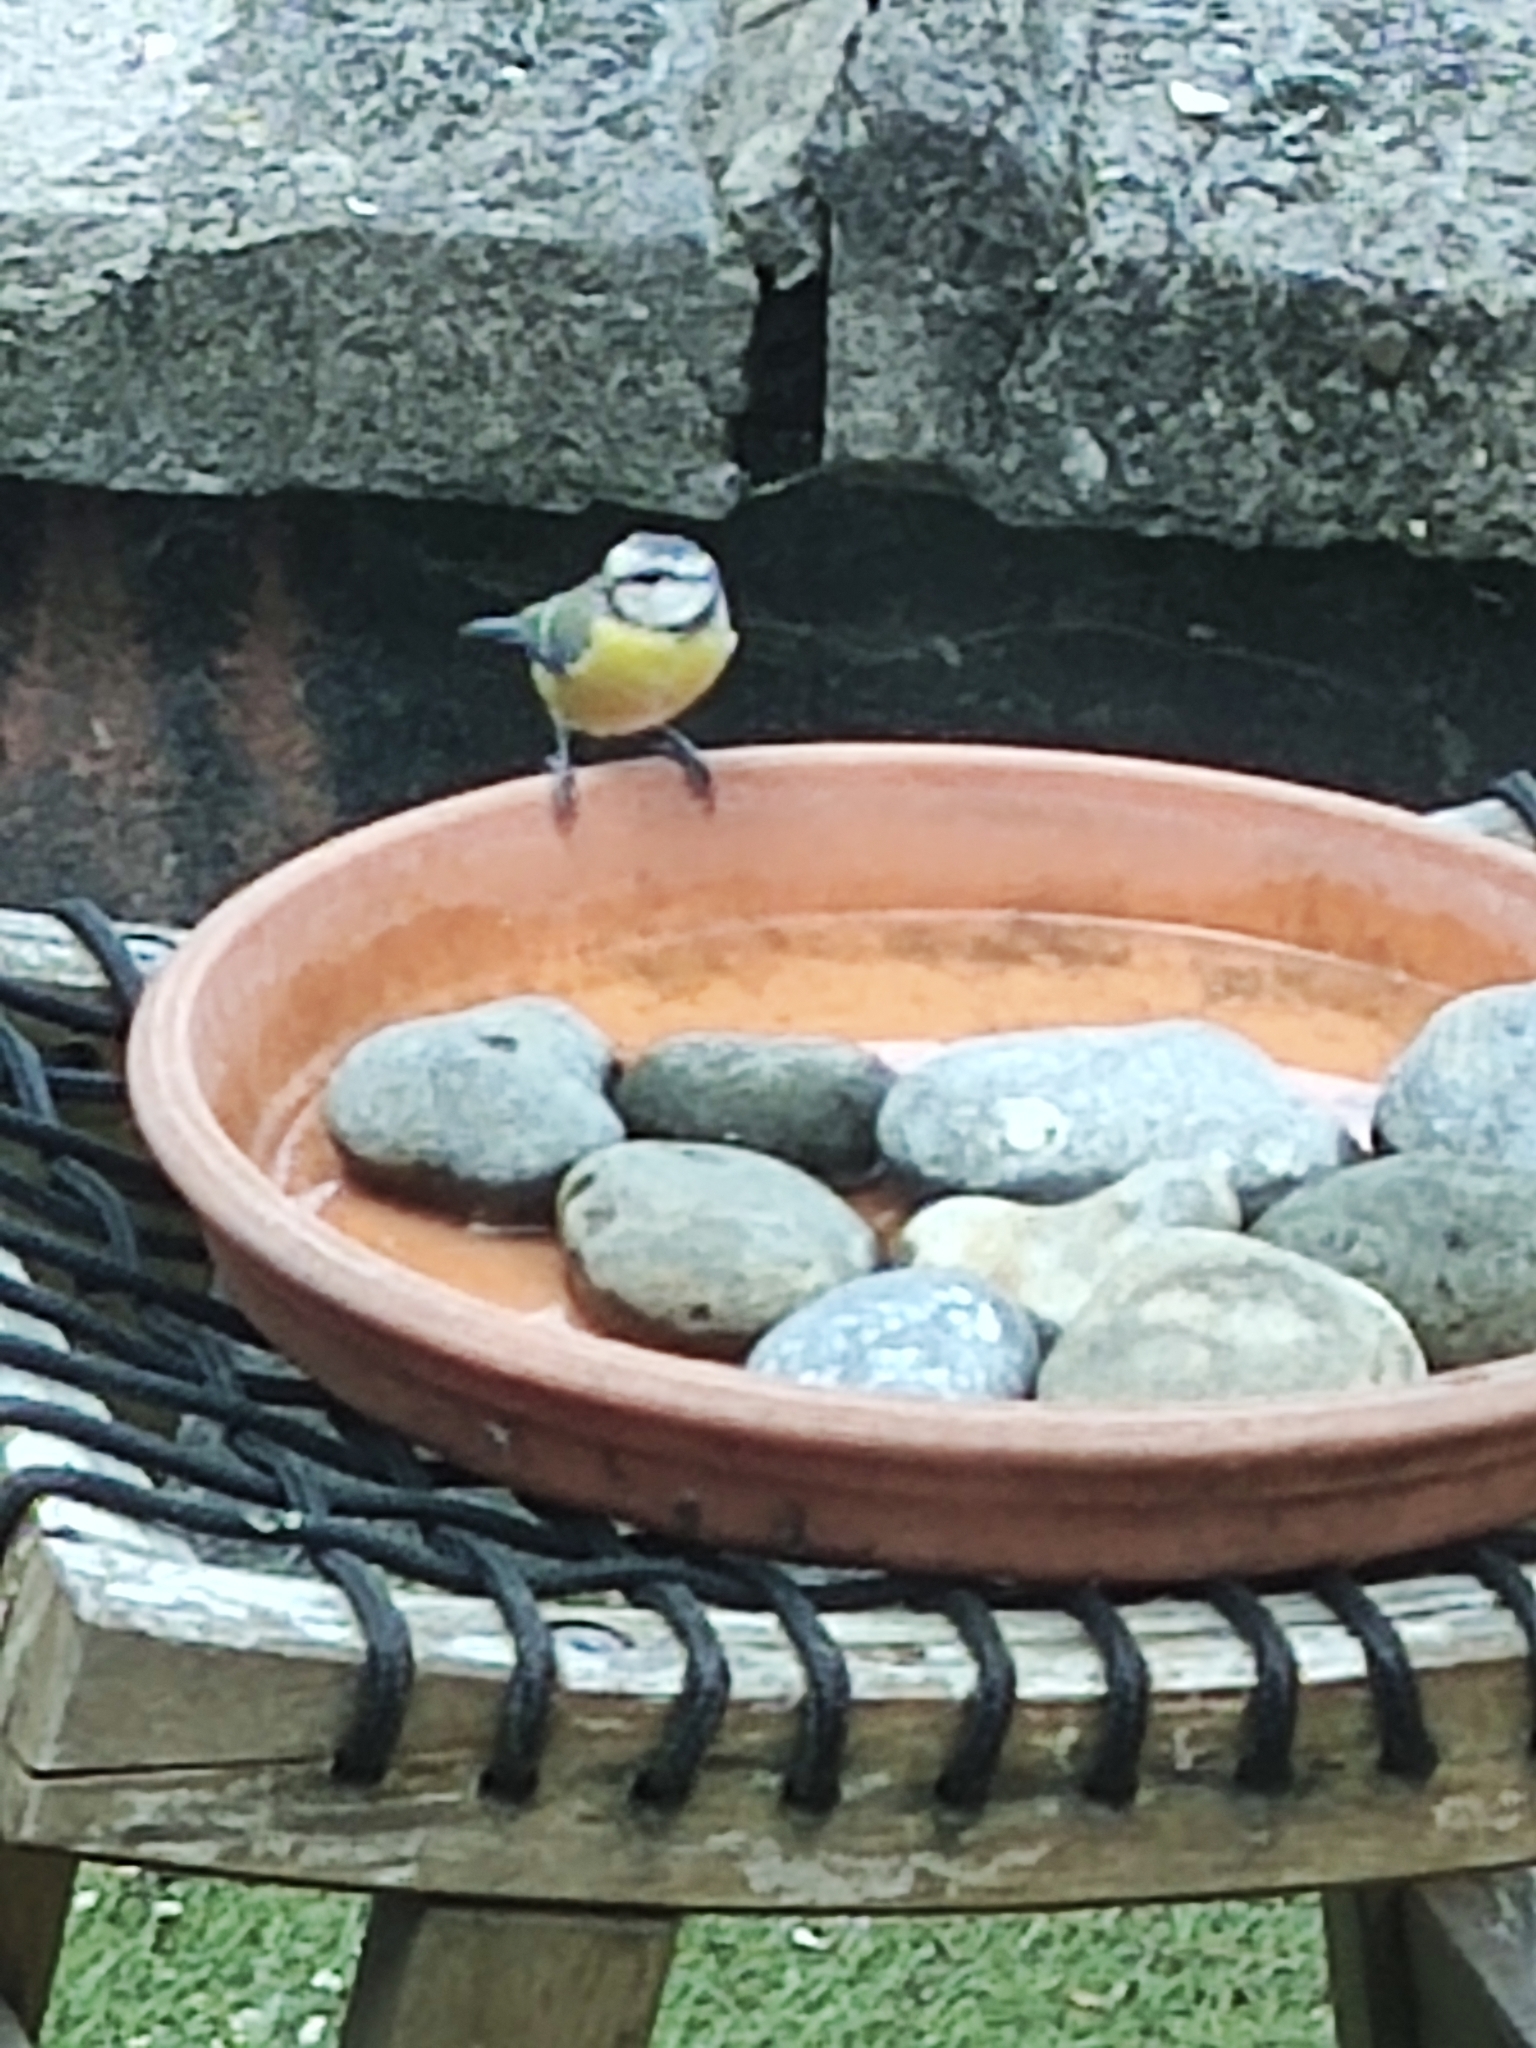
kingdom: Animalia
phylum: Chordata
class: Aves
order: Passeriformes
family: Paridae
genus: Cyanistes
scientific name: Cyanistes caeruleus
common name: Eurasian blue tit
